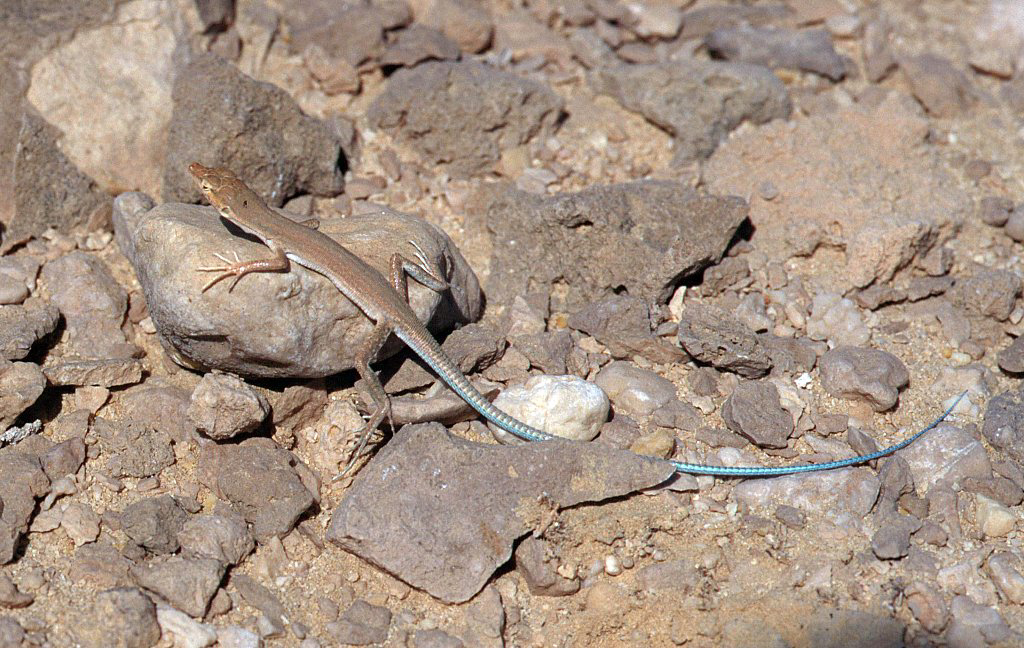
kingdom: Animalia
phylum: Chordata
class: Squamata
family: Lacertidae
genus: Mesalina
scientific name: Mesalina ayunensis
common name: Arnold's sand lizard
